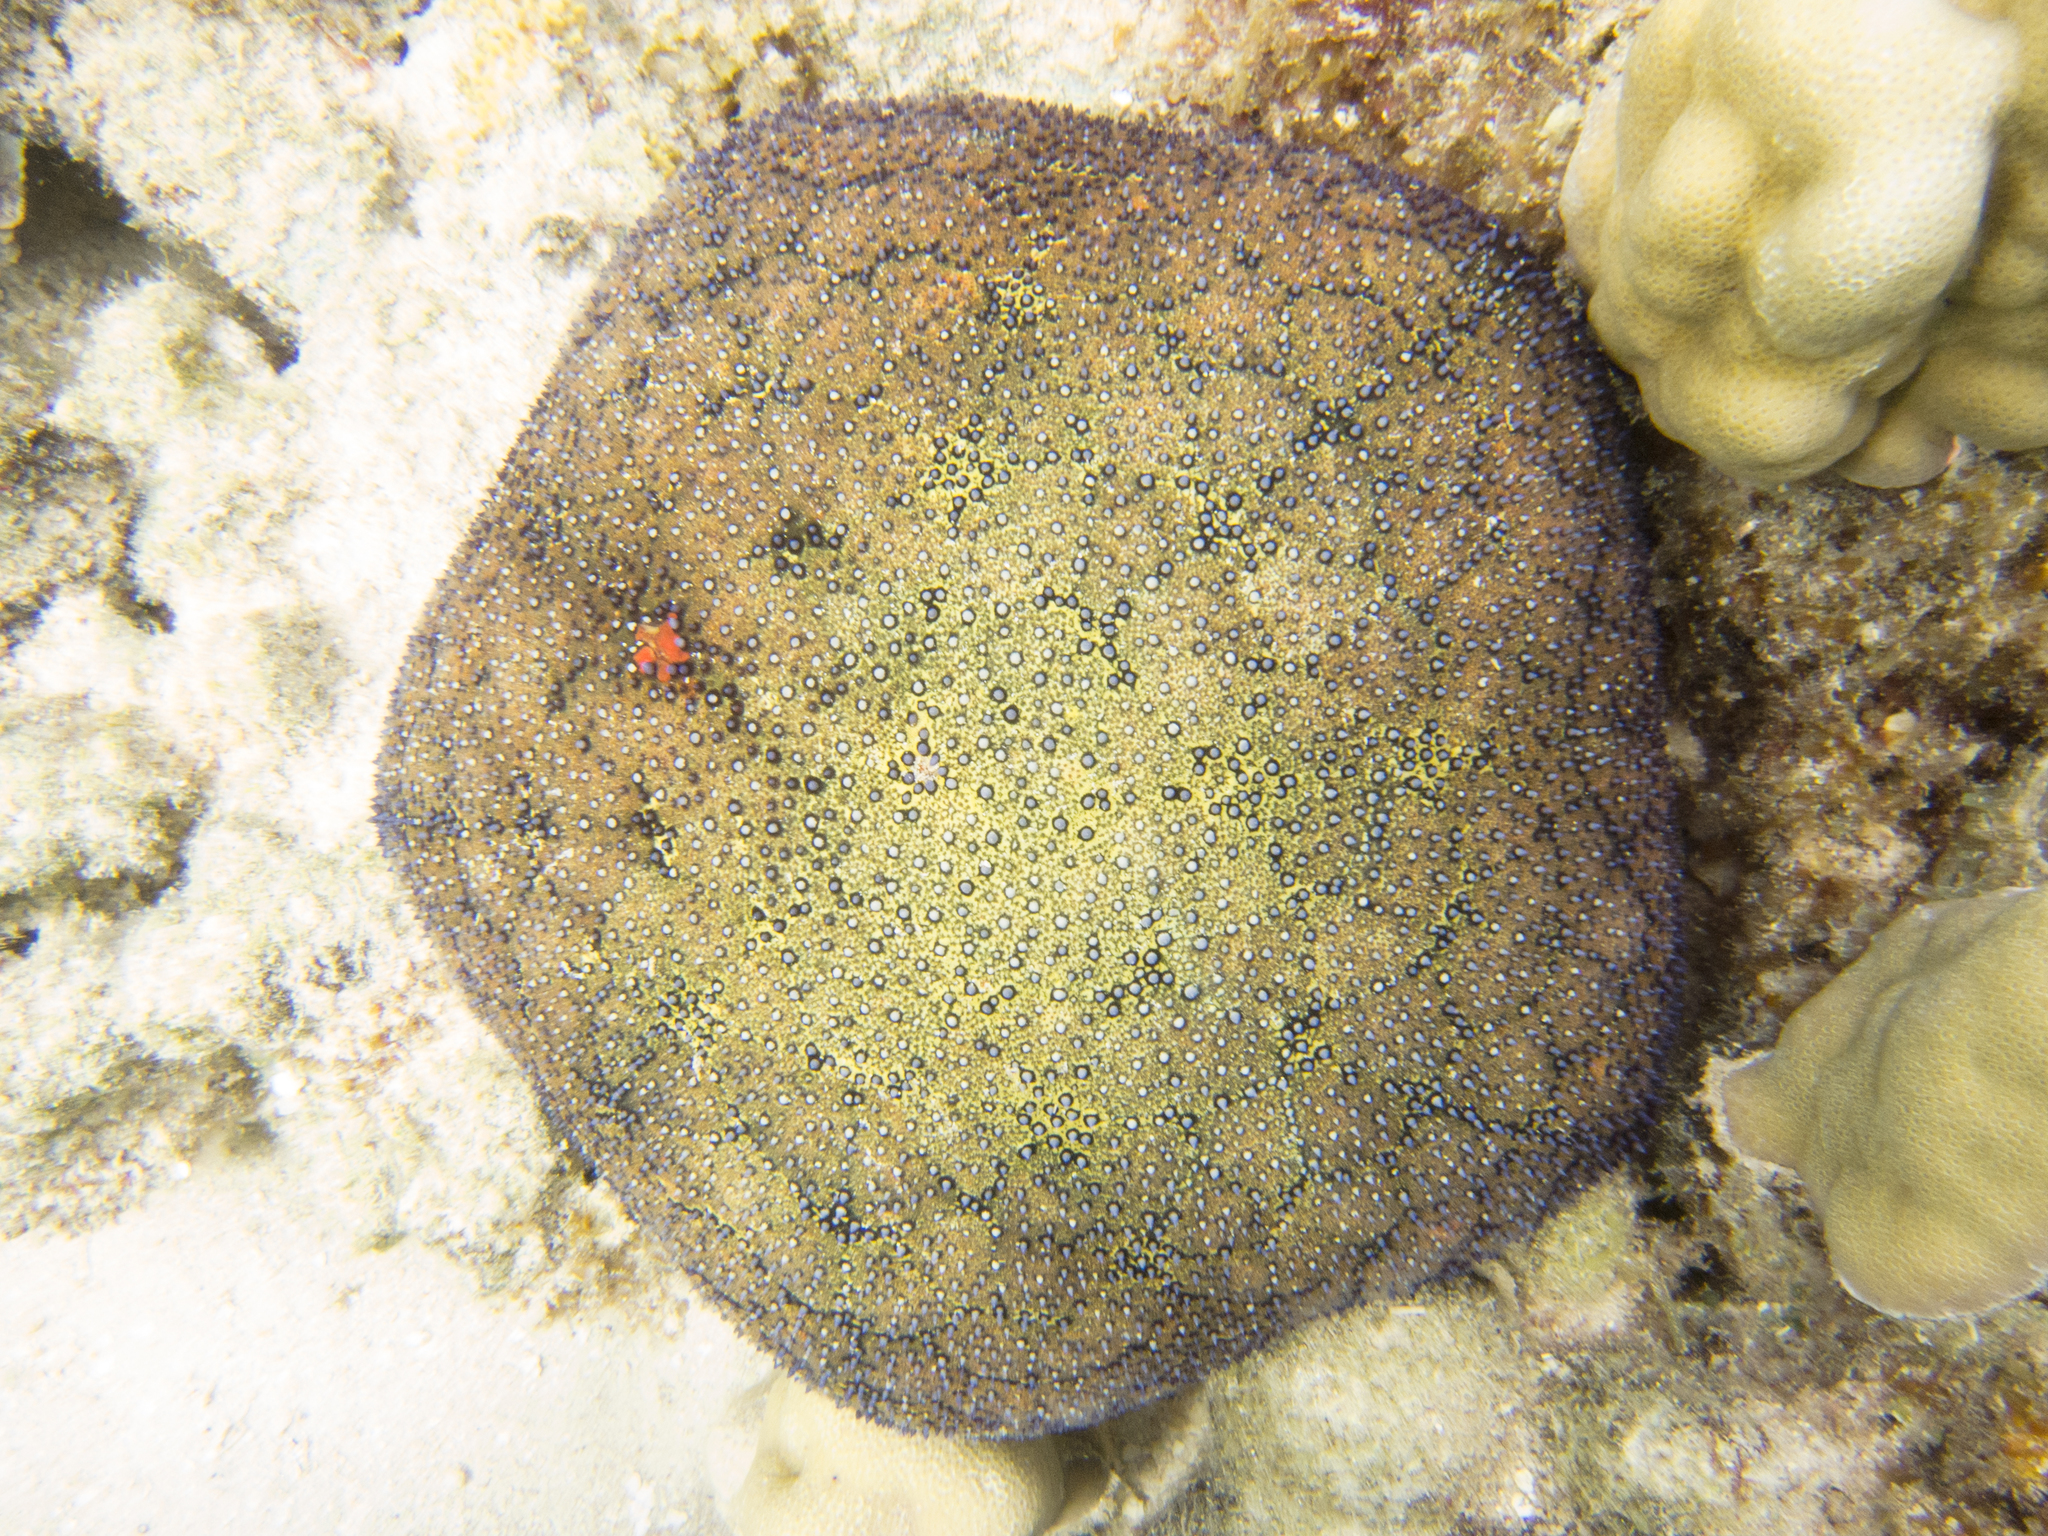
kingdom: Animalia
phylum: Echinodermata
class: Asteroidea
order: Valvatida
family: Oreasteridae
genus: Culcita
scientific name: Culcita novaeguineae
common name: Cushion star
